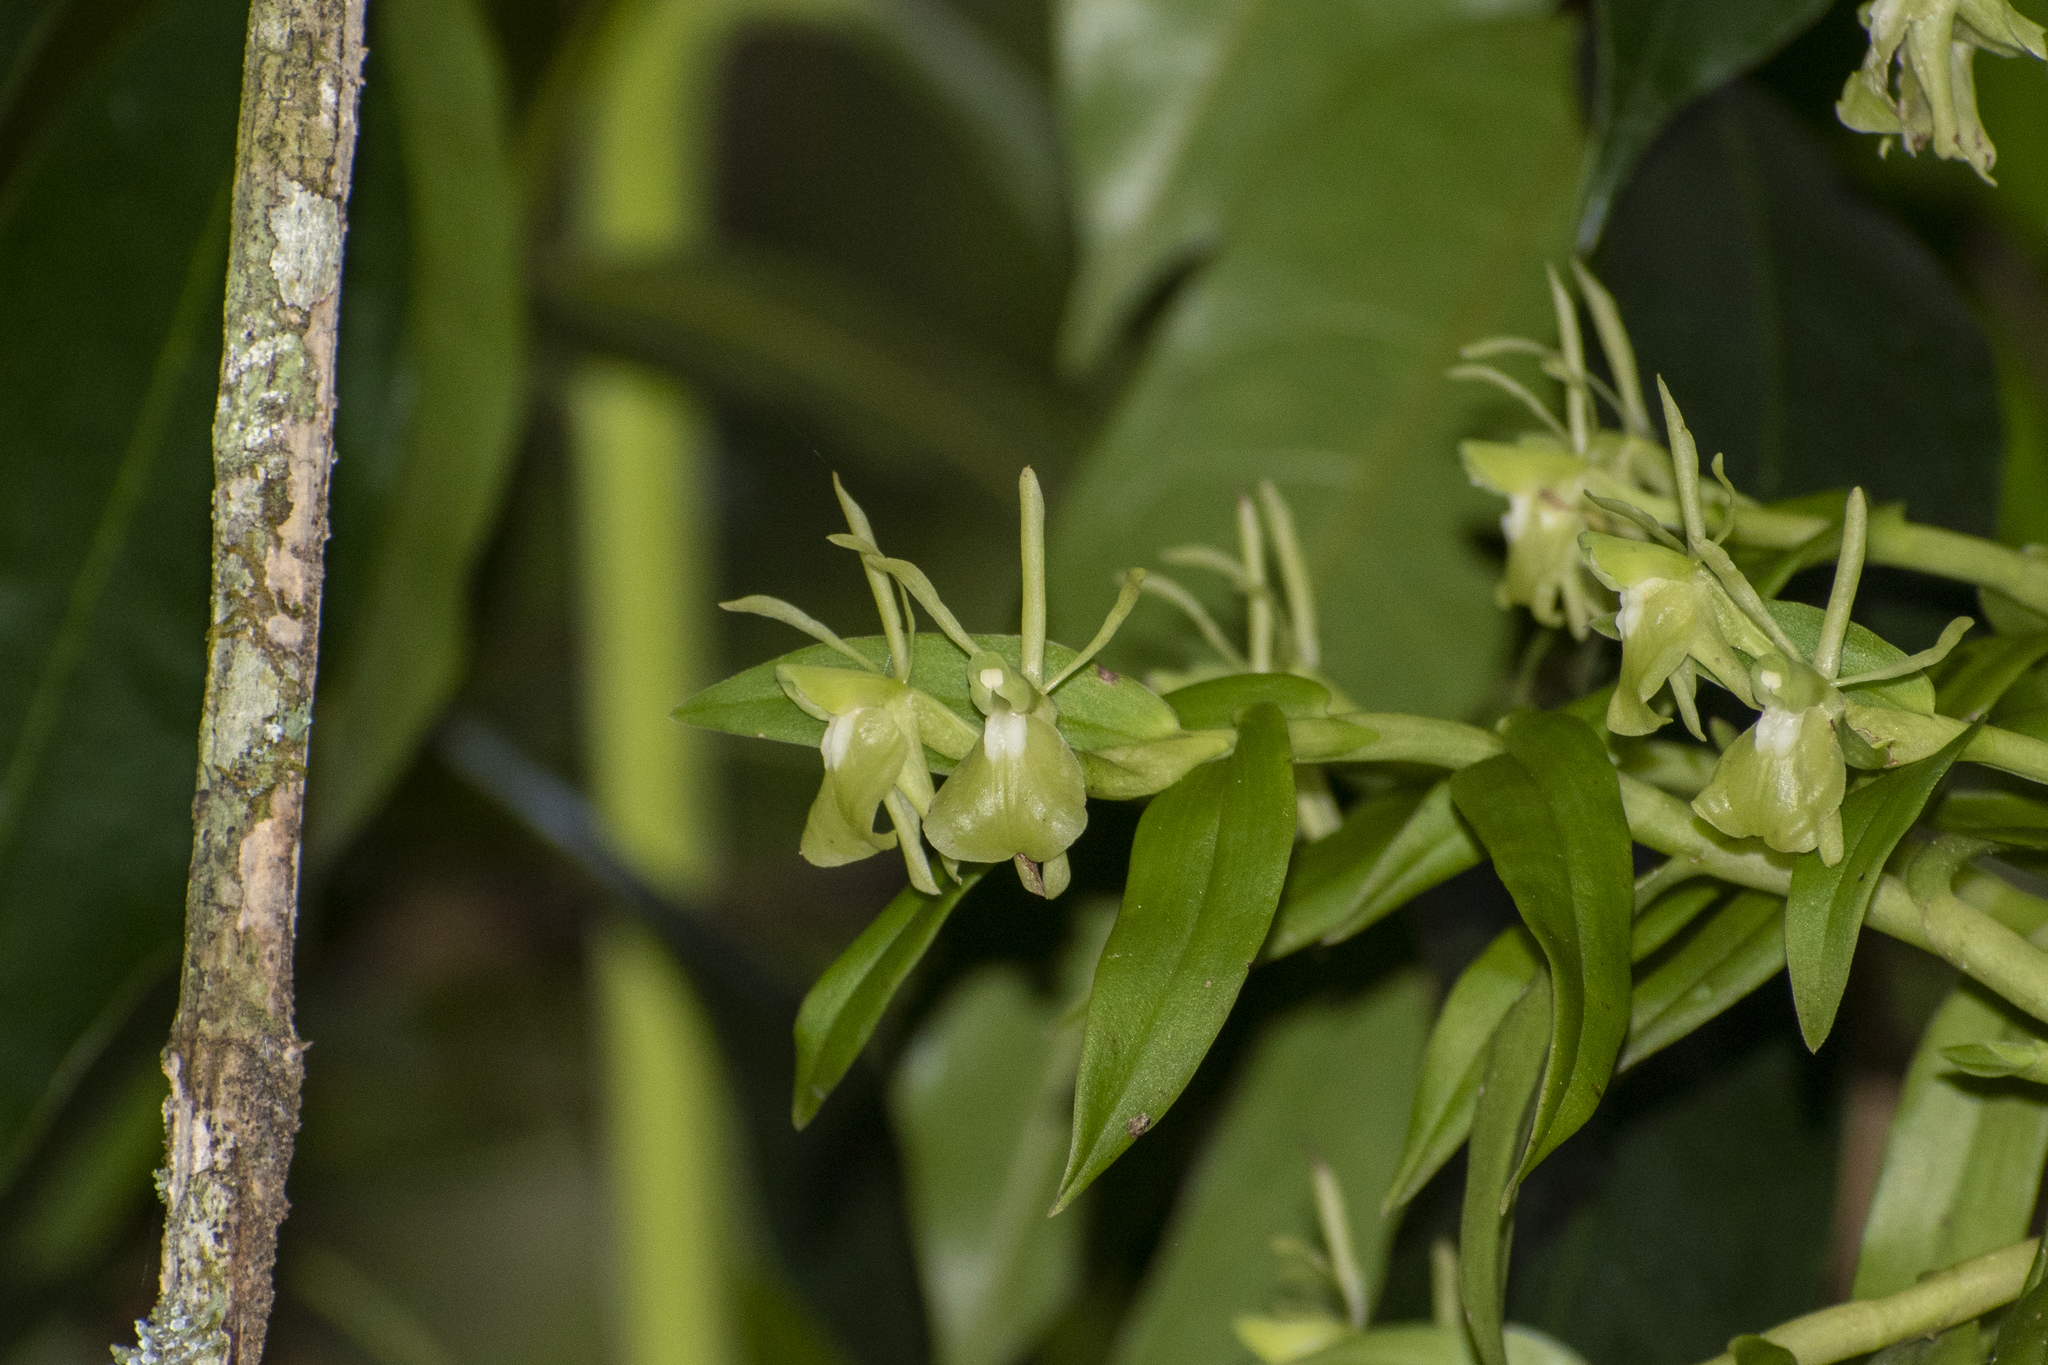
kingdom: Plantae
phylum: Tracheophyta
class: Liliopsida
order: Asparagales
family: Orchidaceae
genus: Epidendrum
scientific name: Epidendrum falcivesicicaule
